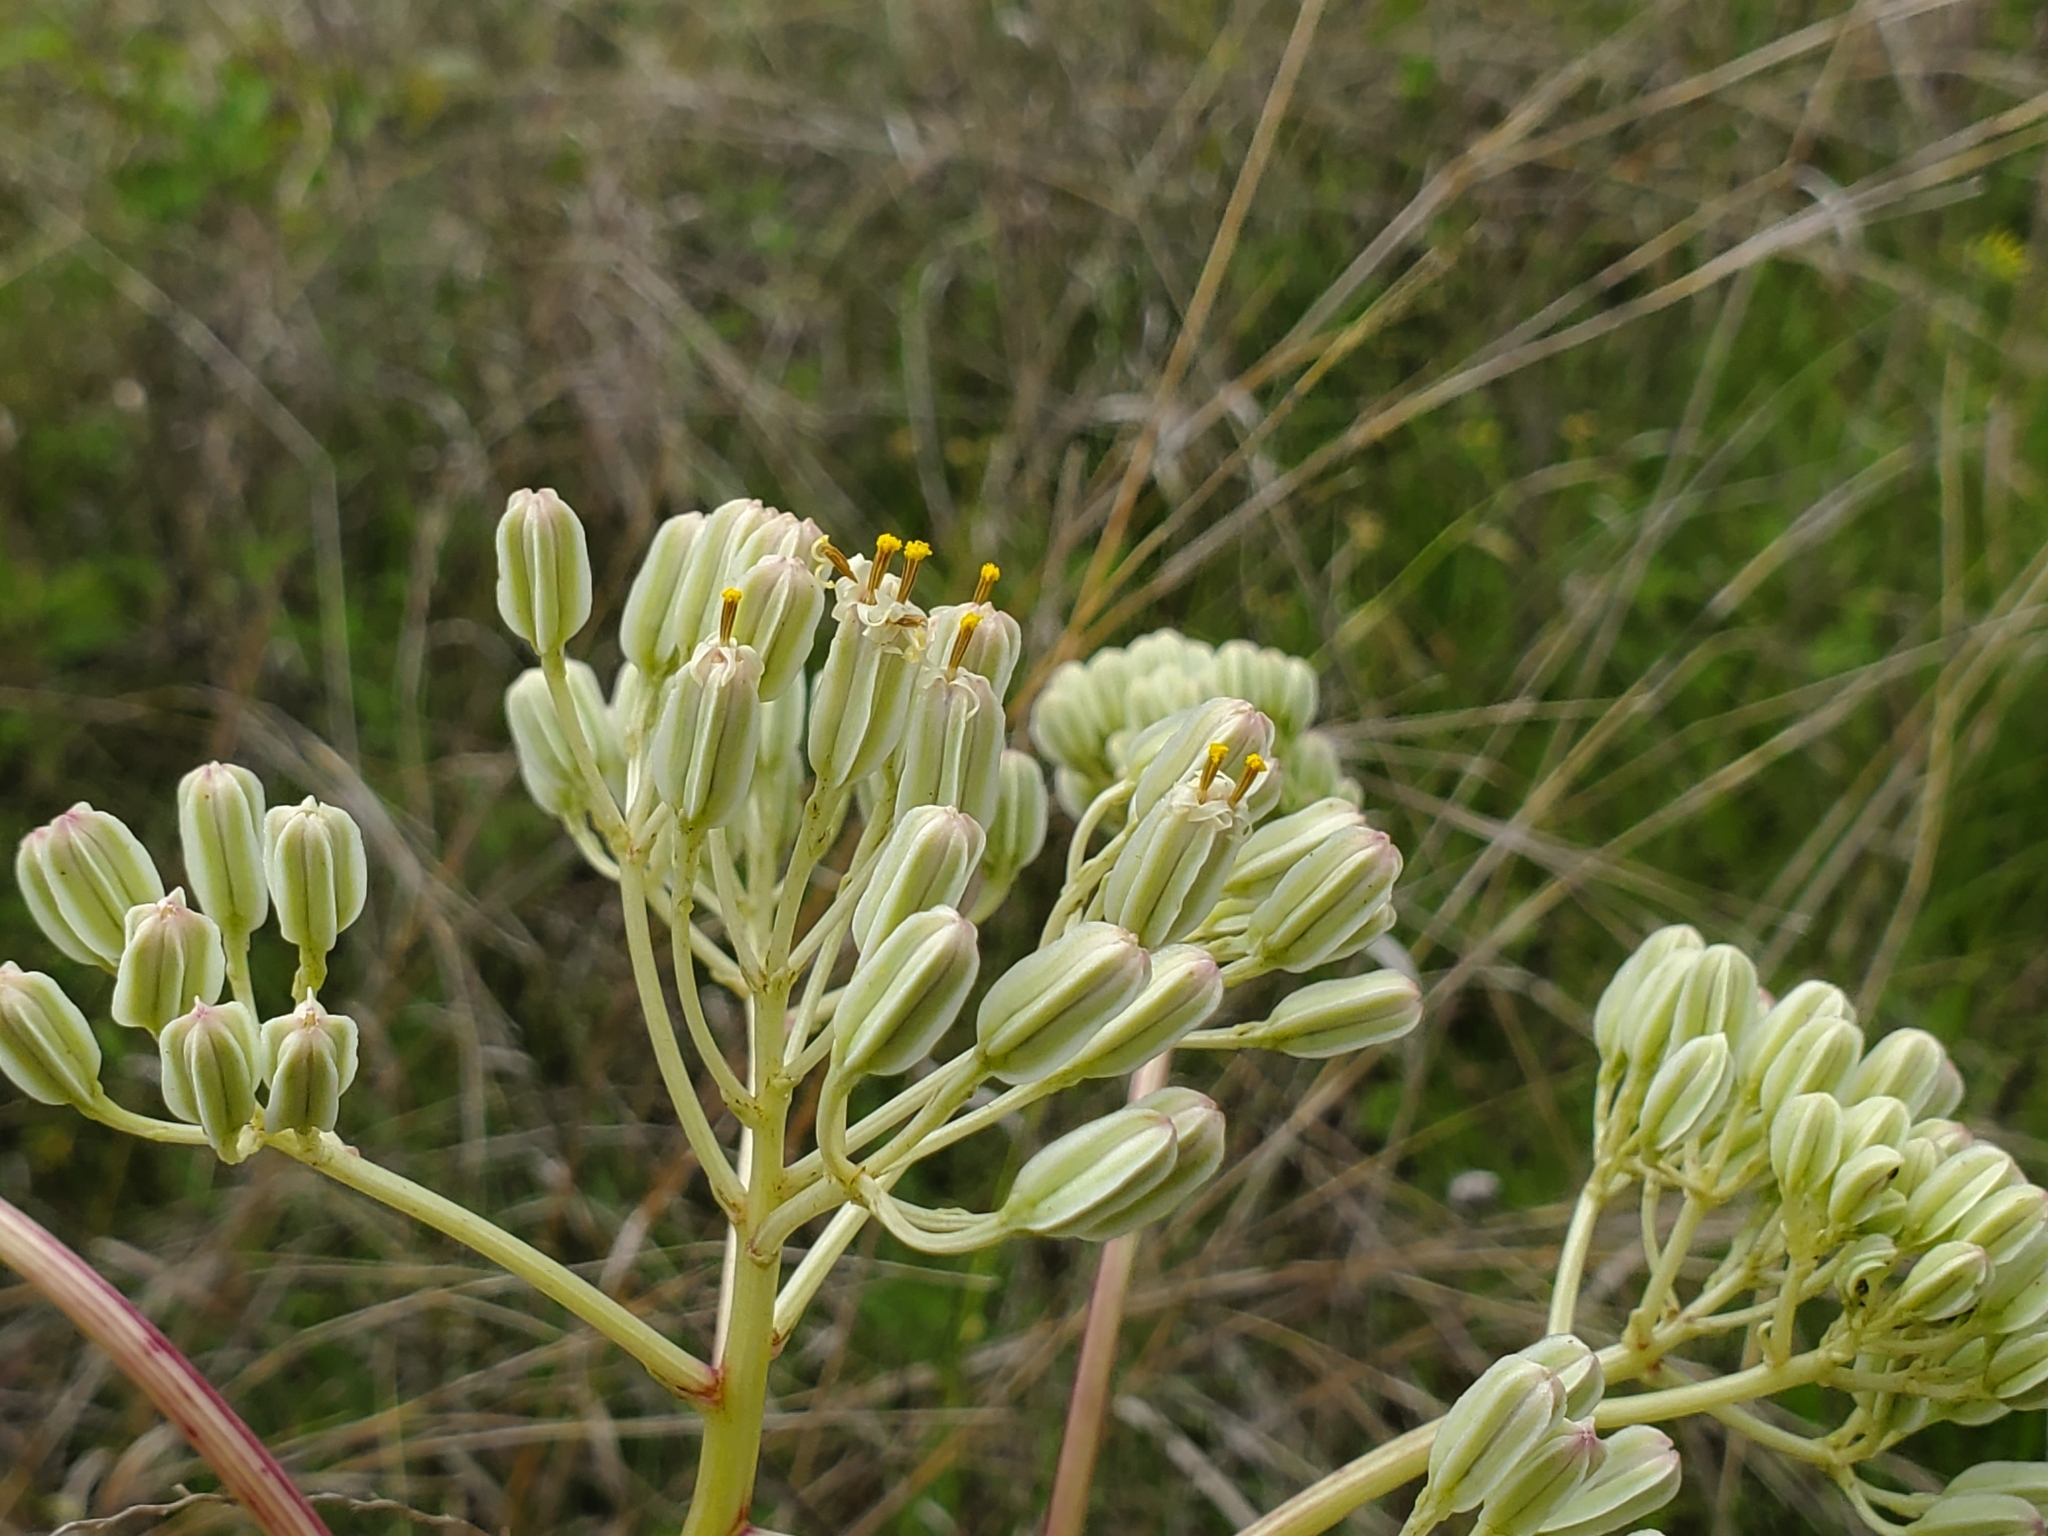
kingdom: Plantae
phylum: Tracheophyta
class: Magnoliopsida
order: Asterales
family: Asteraceae
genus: Arnoglossum
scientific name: Arnoglossum plantagineum
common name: Groove-stemmed indian-plantain
